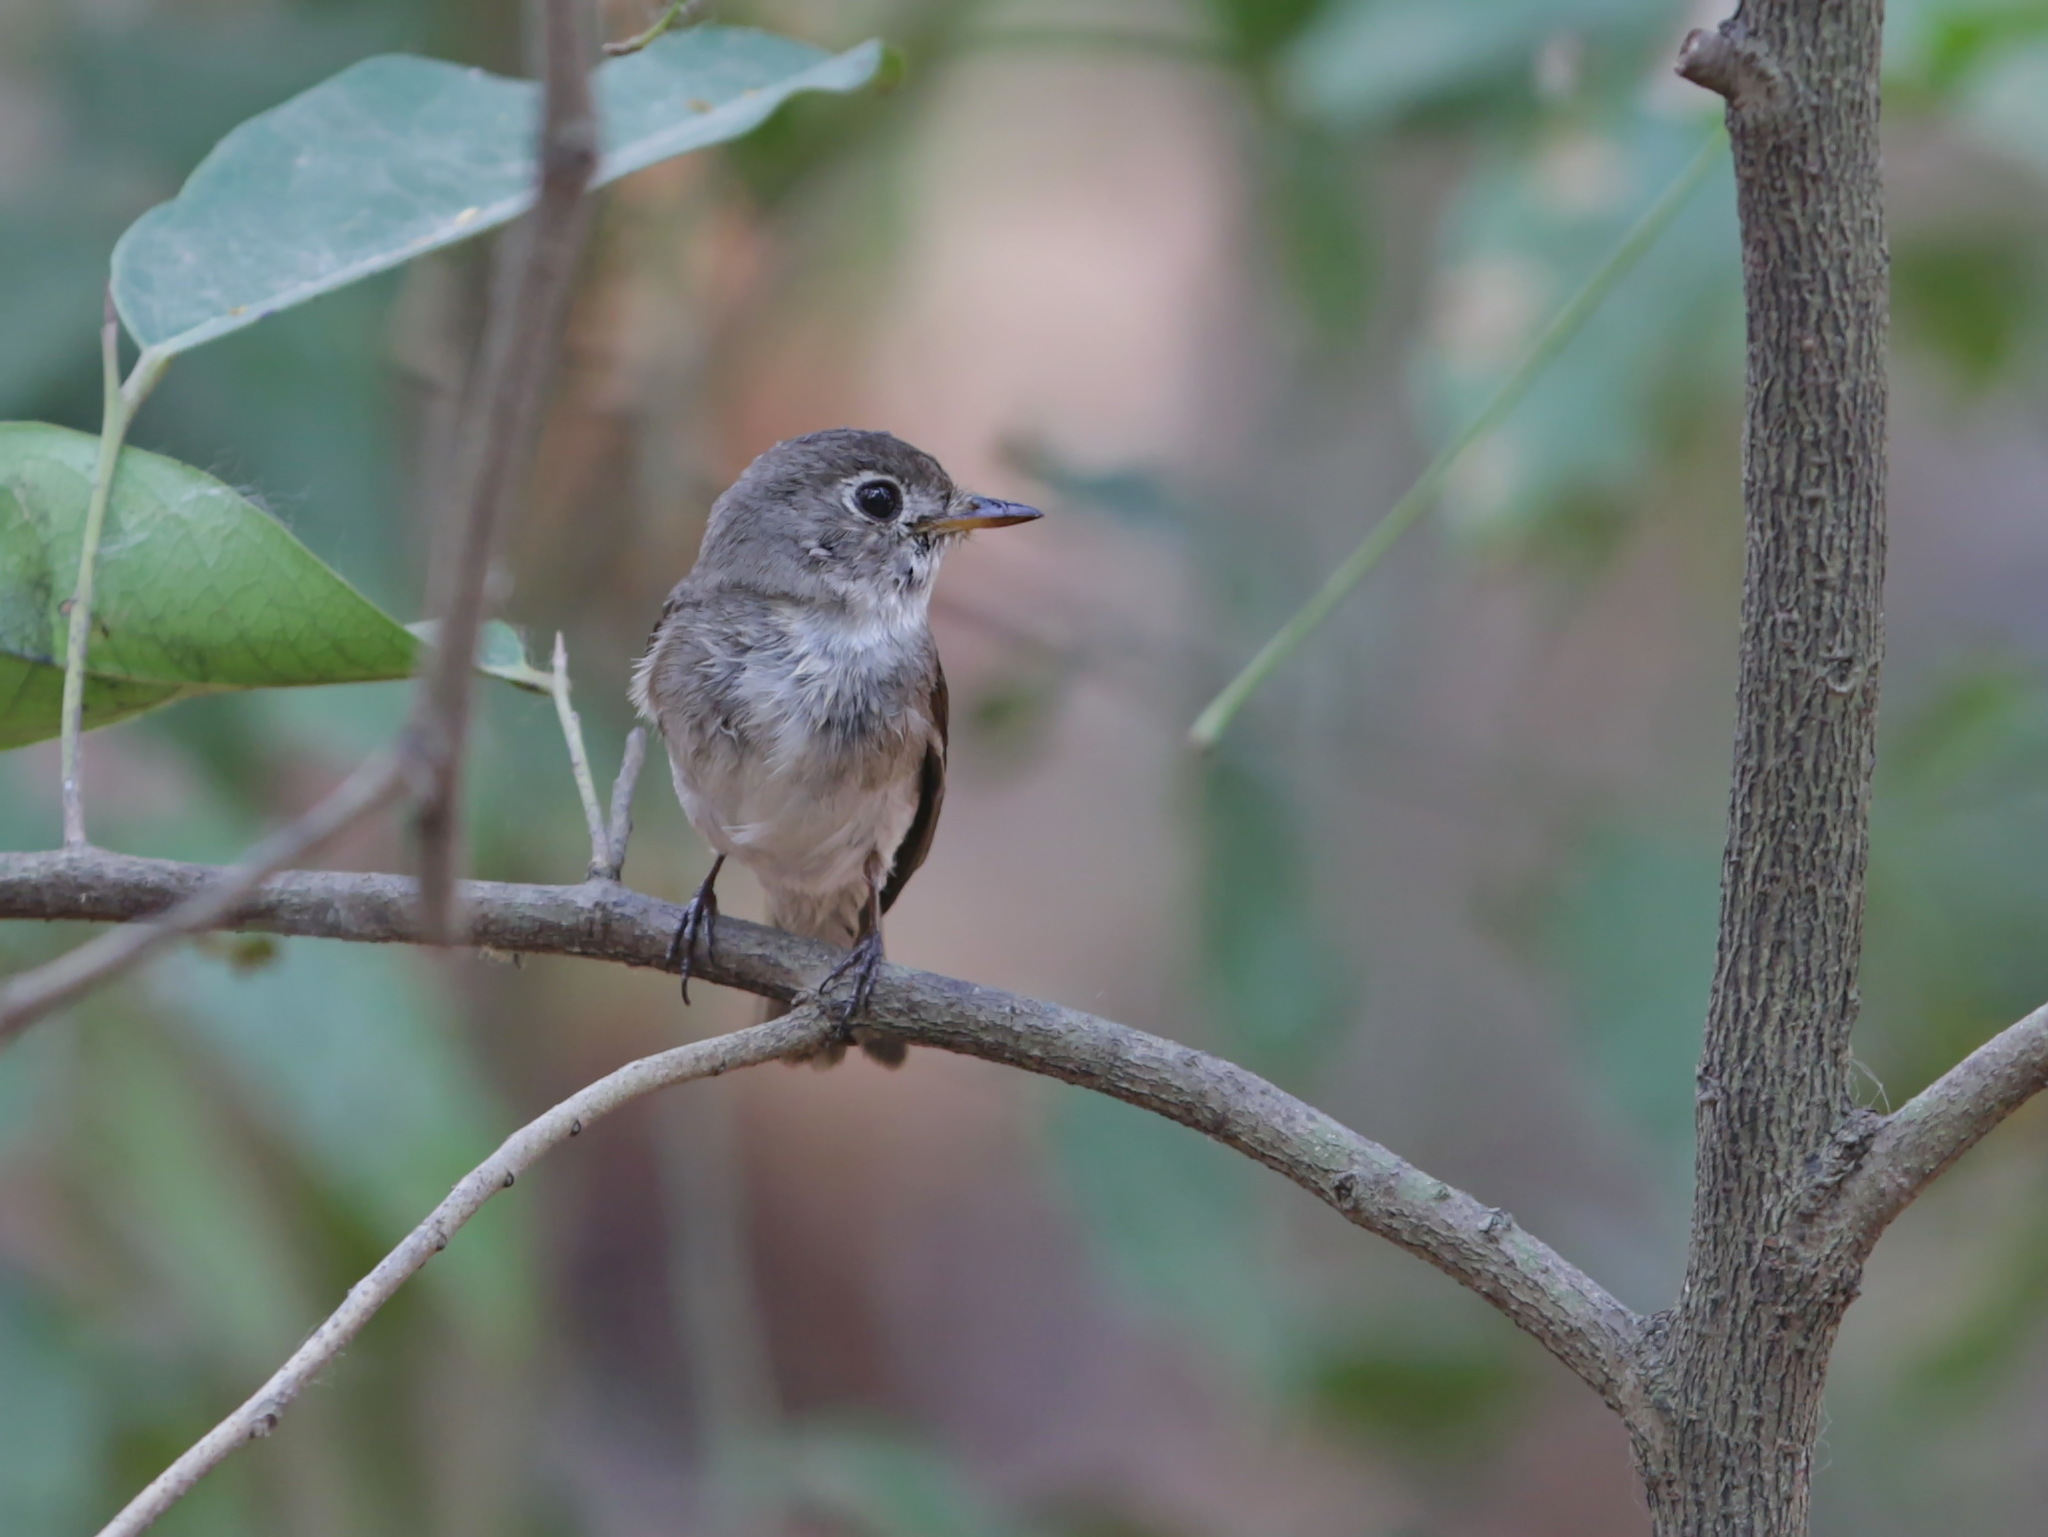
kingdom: Animalia
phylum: Chordata
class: Aves
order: Passeriformes
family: Muscicapidae
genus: Muscicapa
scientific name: Muscicapa latirostris
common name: Asian brown flycatcher
